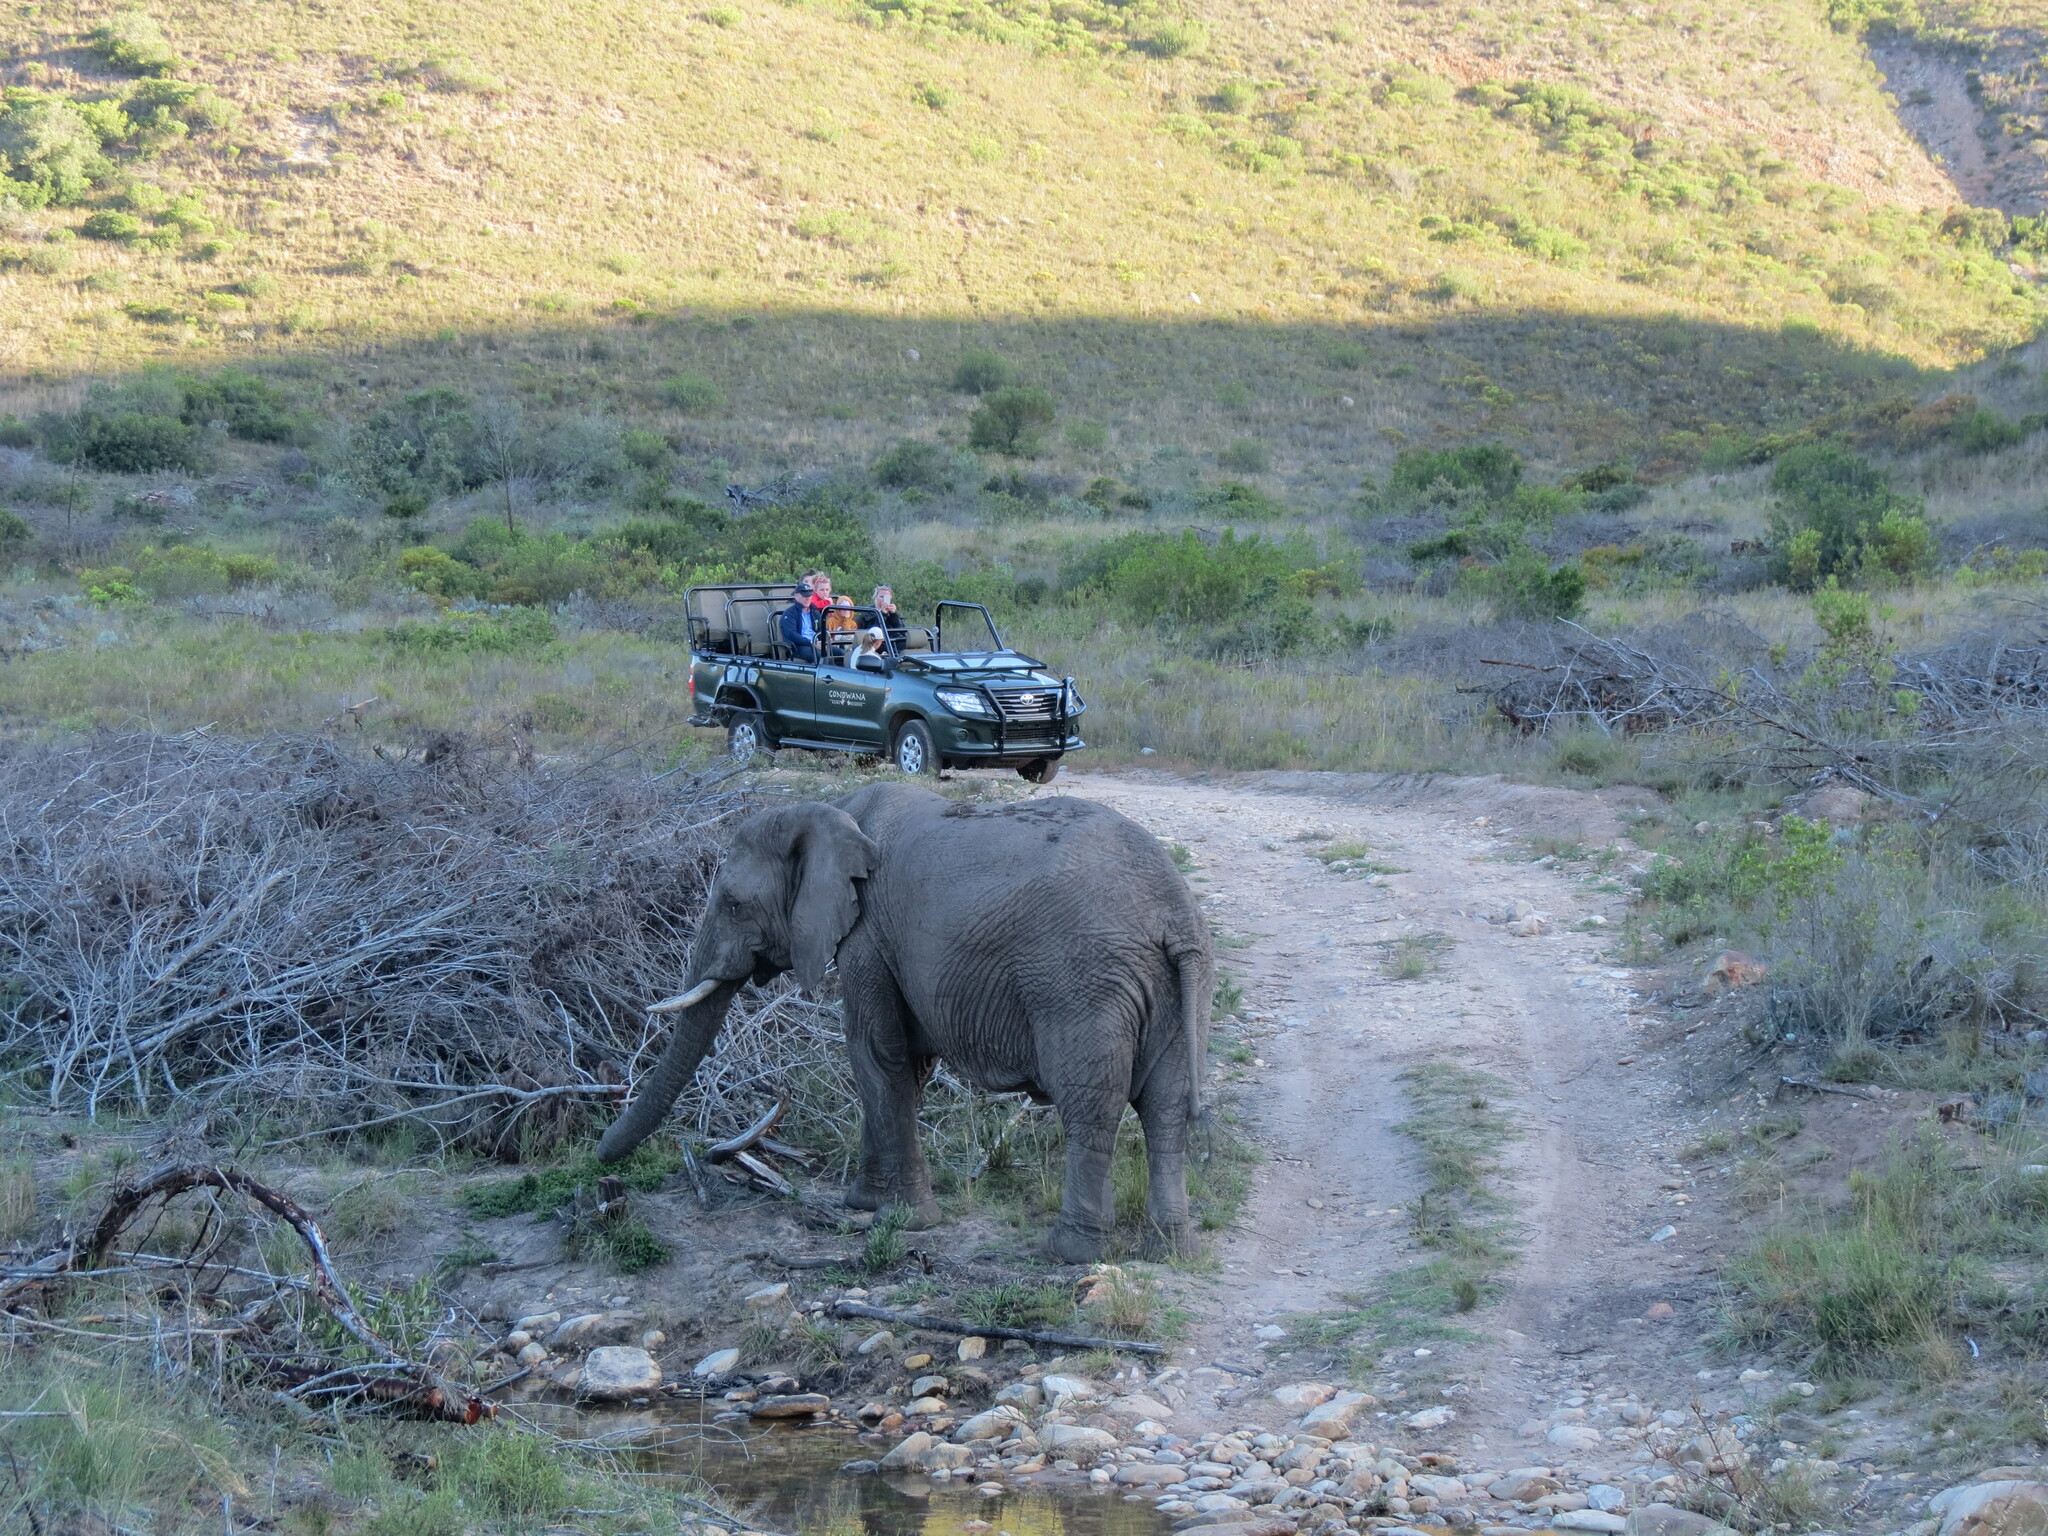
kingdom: Animalia
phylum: Chordata
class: Mammalia
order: Proboscidea
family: Elephantidae
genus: Loxodonta
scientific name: Loxodonta africana
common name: African elephant
